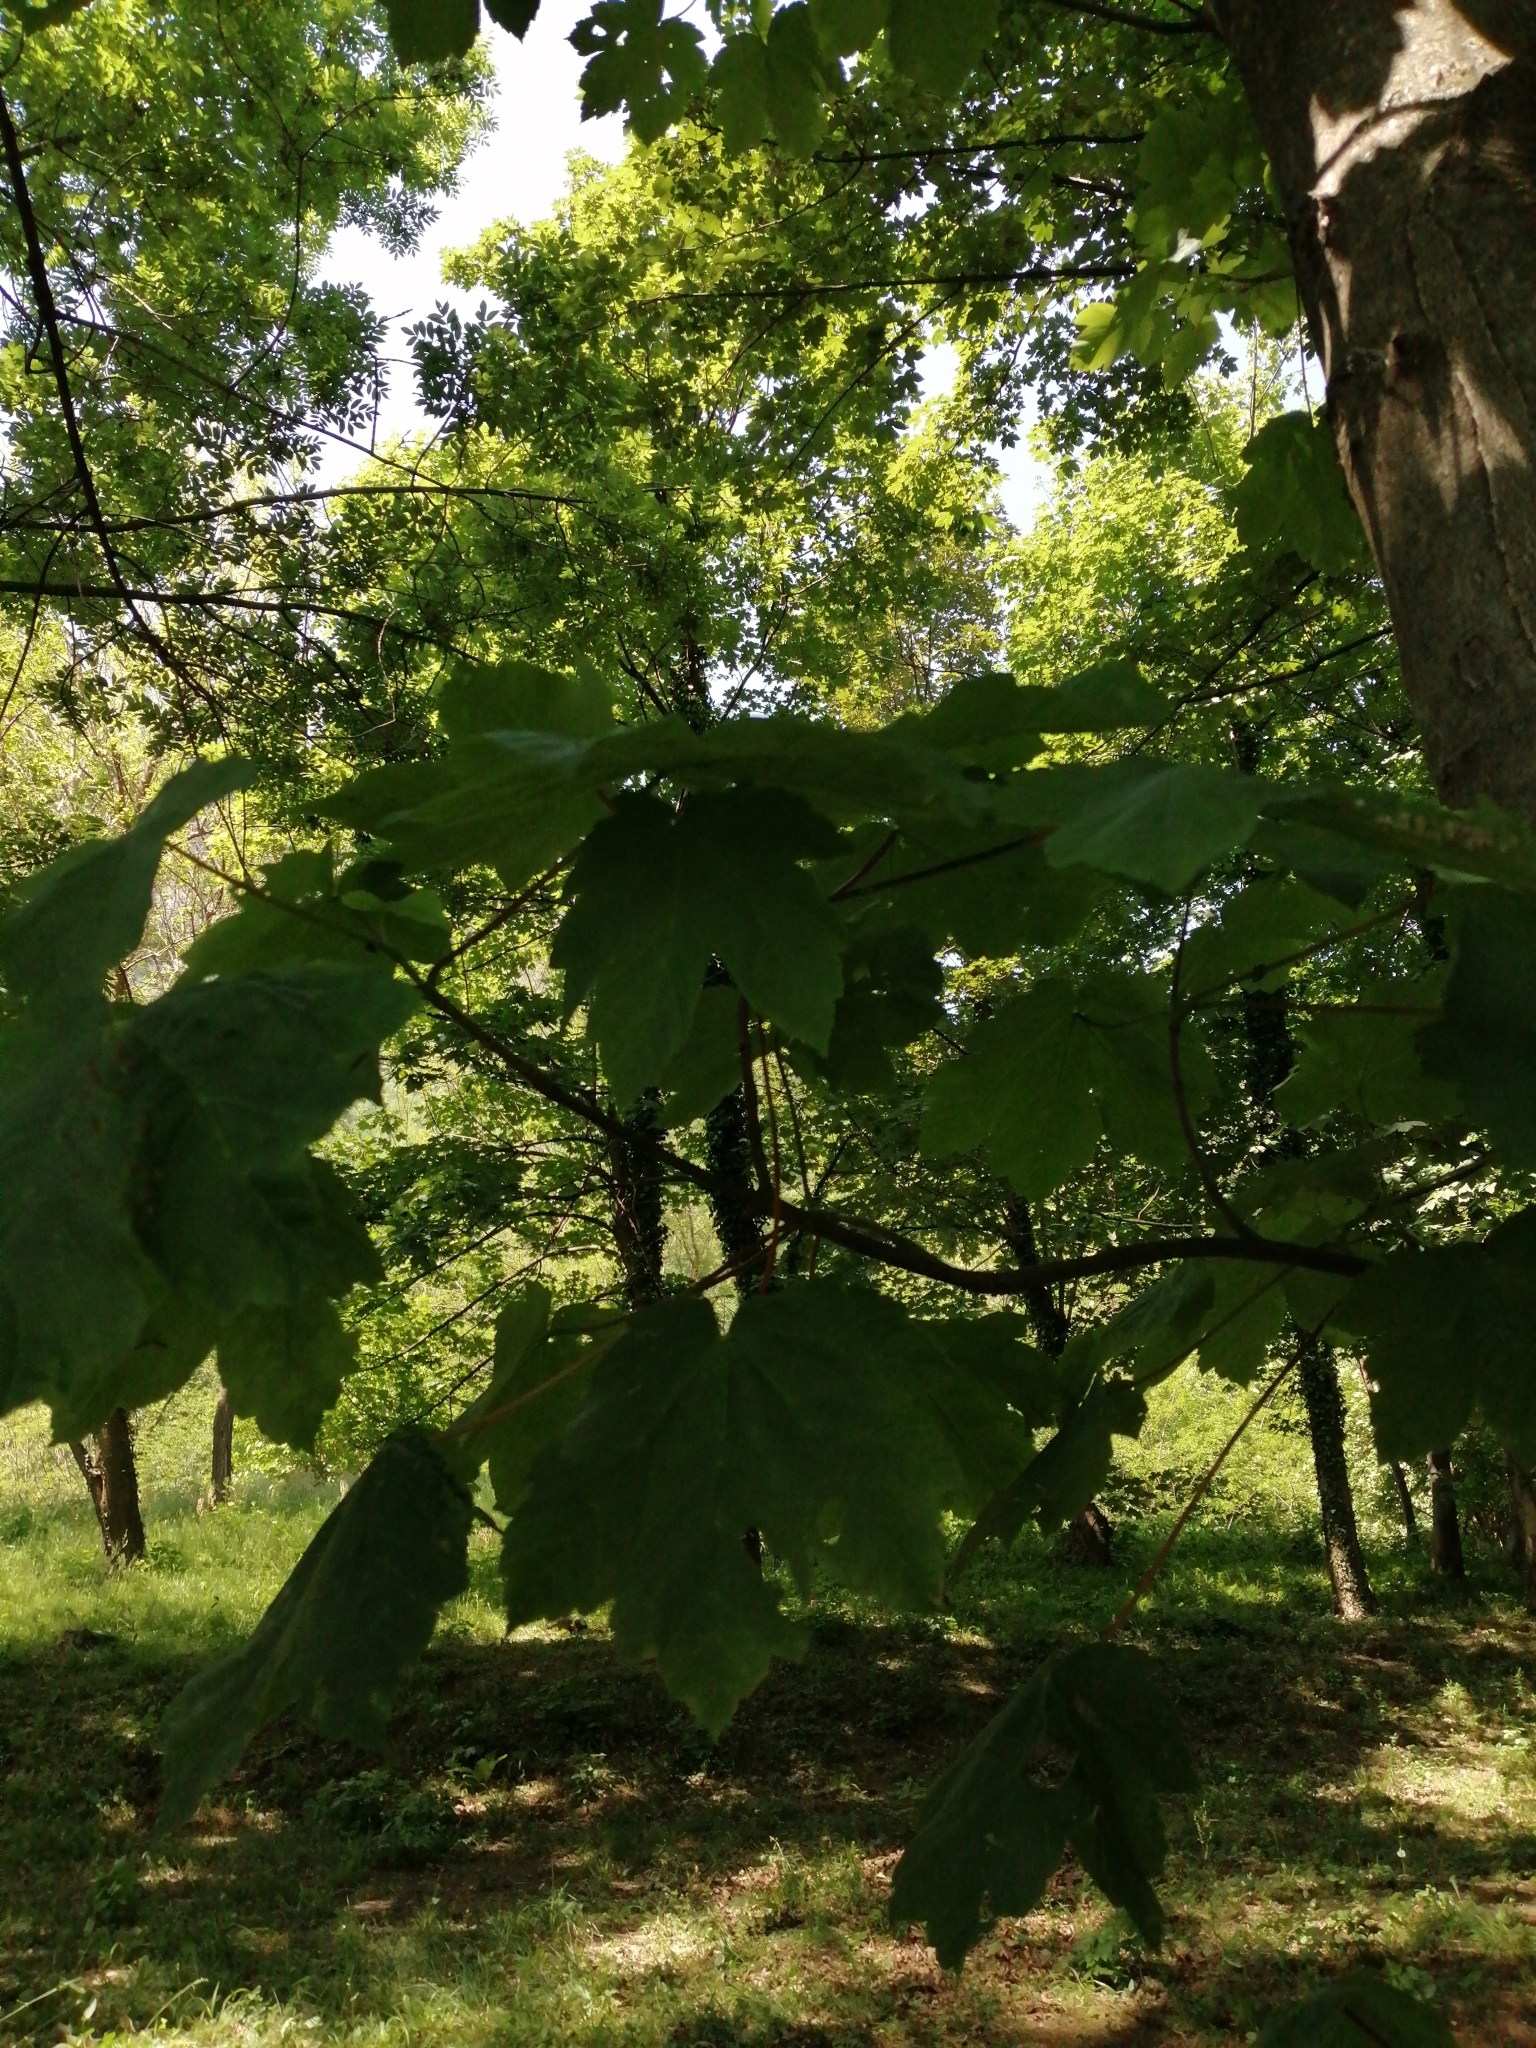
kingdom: Plantae
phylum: Tracheophyta
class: Magnoliopsida
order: Sapindales
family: Sapindaceae
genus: Acer
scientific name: Acer pseudoplatanus
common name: Sycamore
